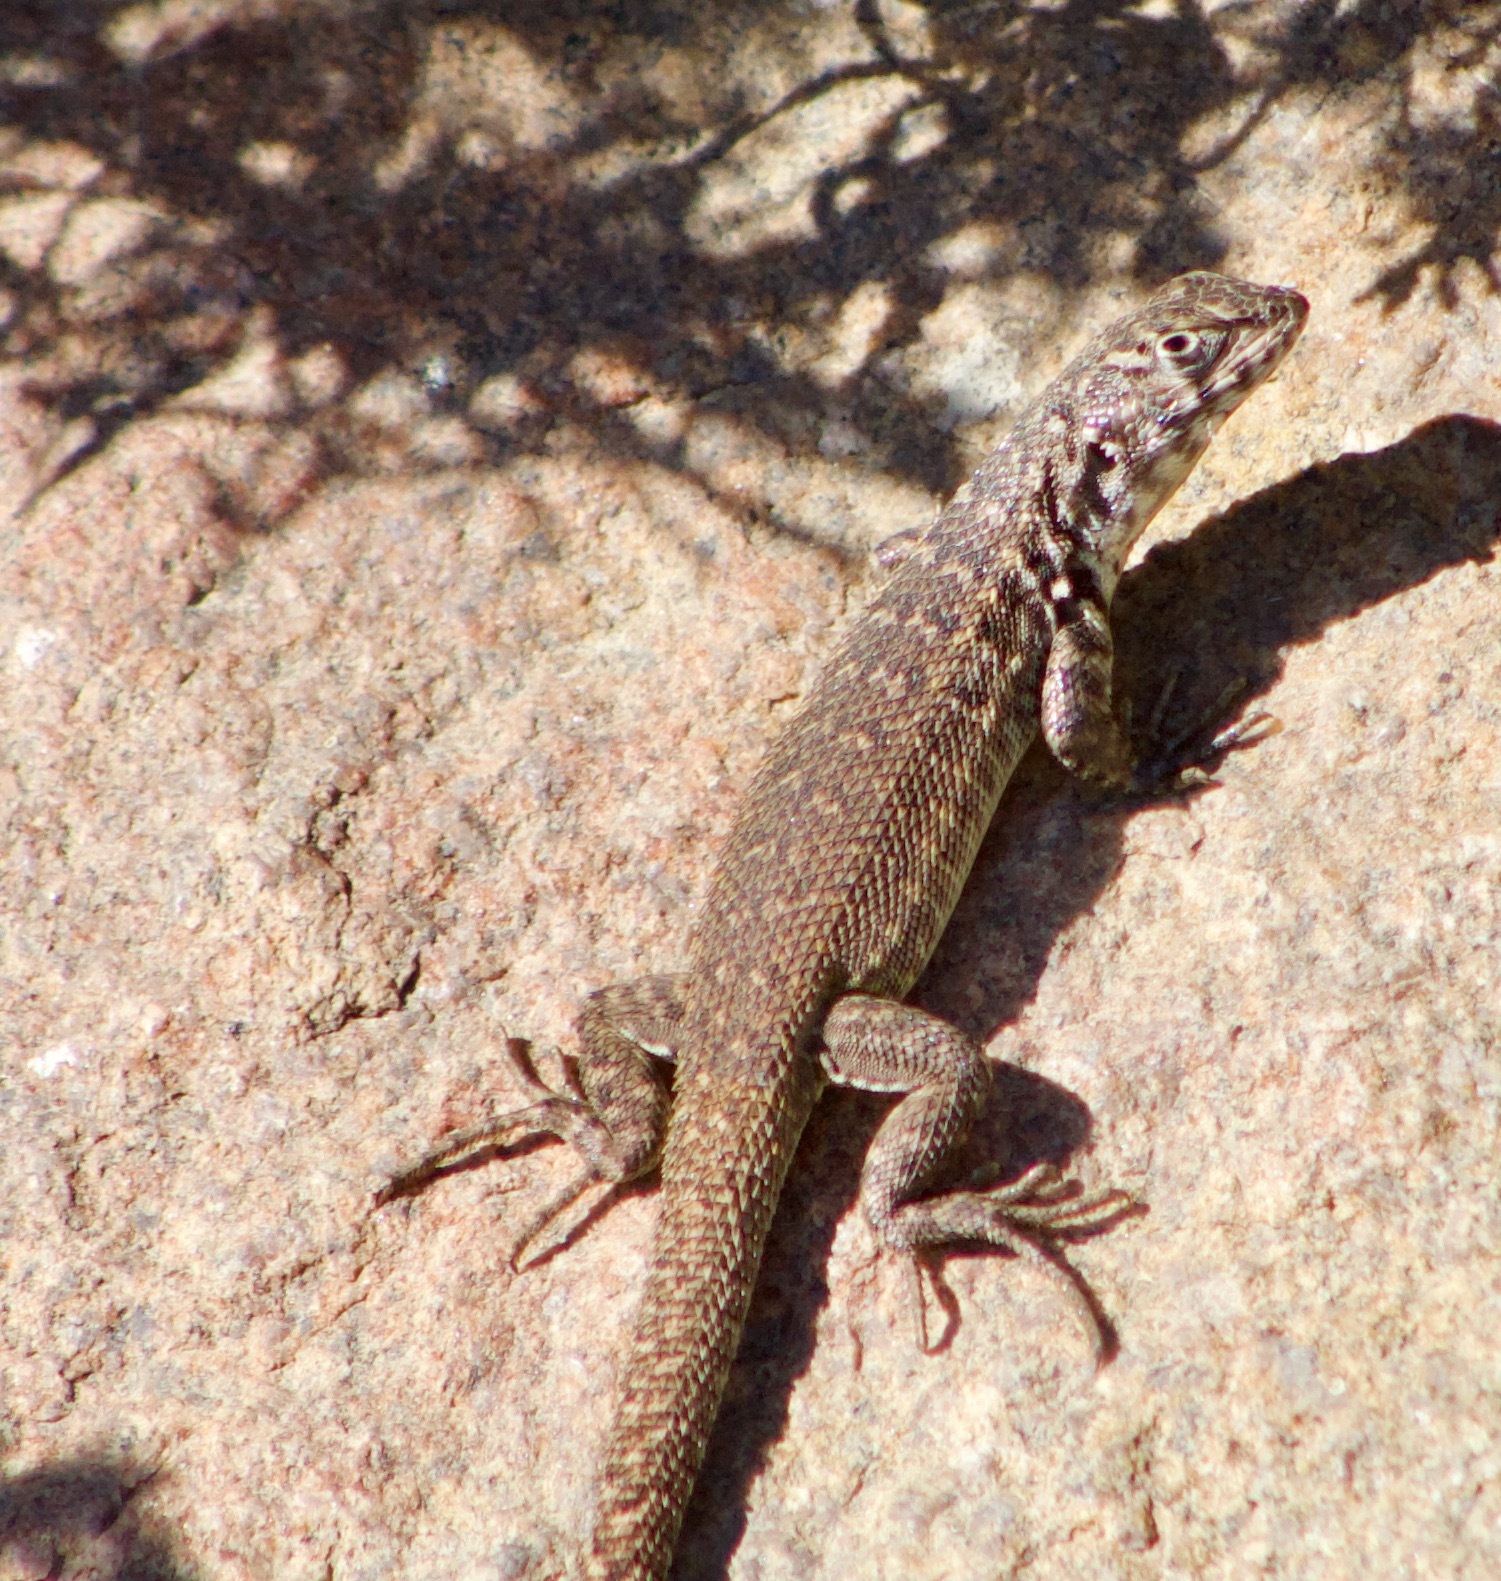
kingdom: Animalia
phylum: Chordata
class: Squamata
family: Liolaemidae
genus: Liolaemus
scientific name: Liolaemus zapallarensis
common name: Zapallaren tree iguana
